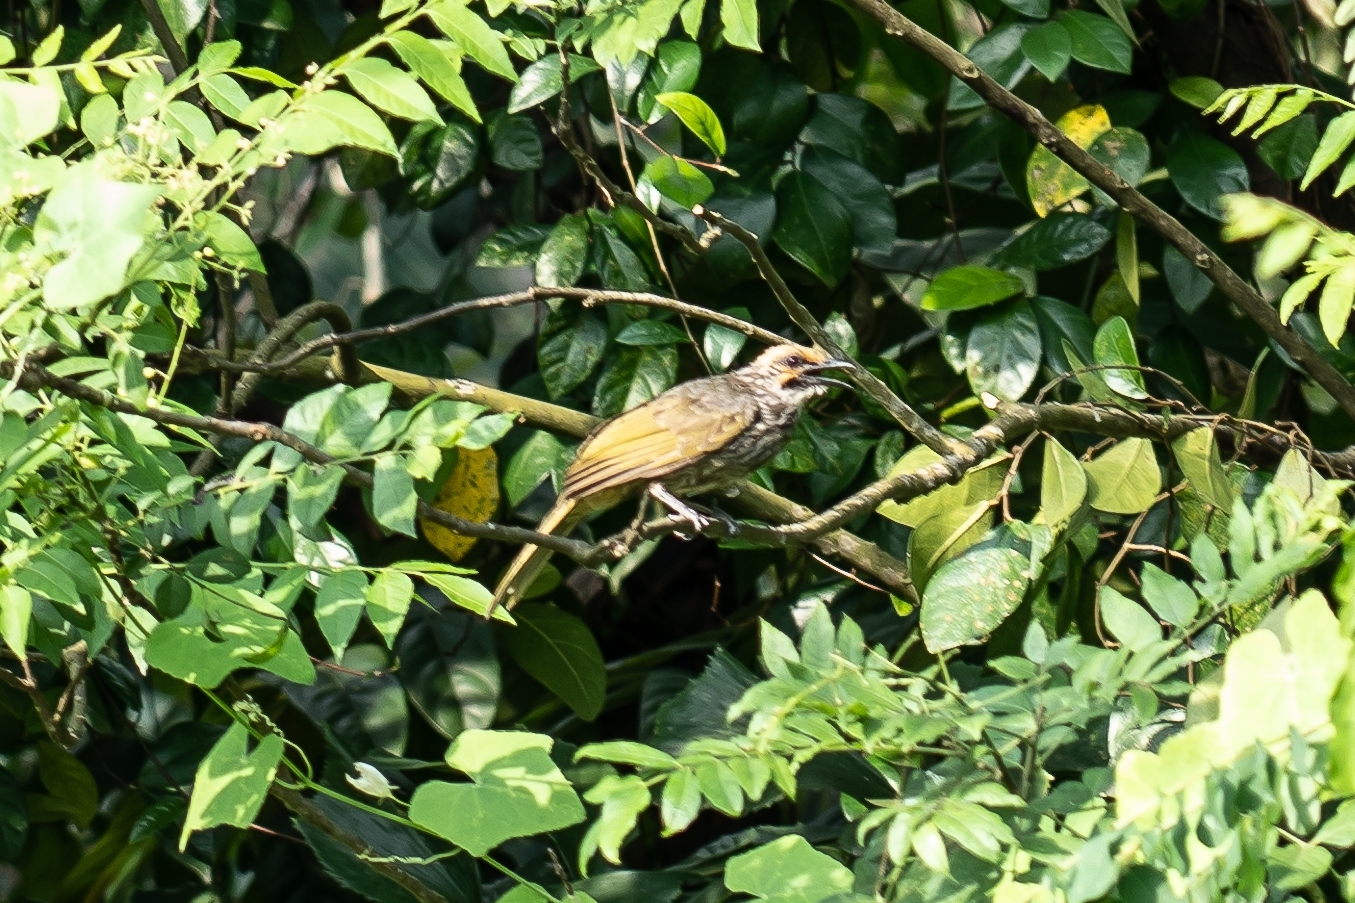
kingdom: Animalia
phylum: Chordata
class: Aves
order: Passeriformes
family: Pycnonotidae
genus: Pycnonotus
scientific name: Pycnonotus zeylanicus
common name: Straw-headed bulbul
